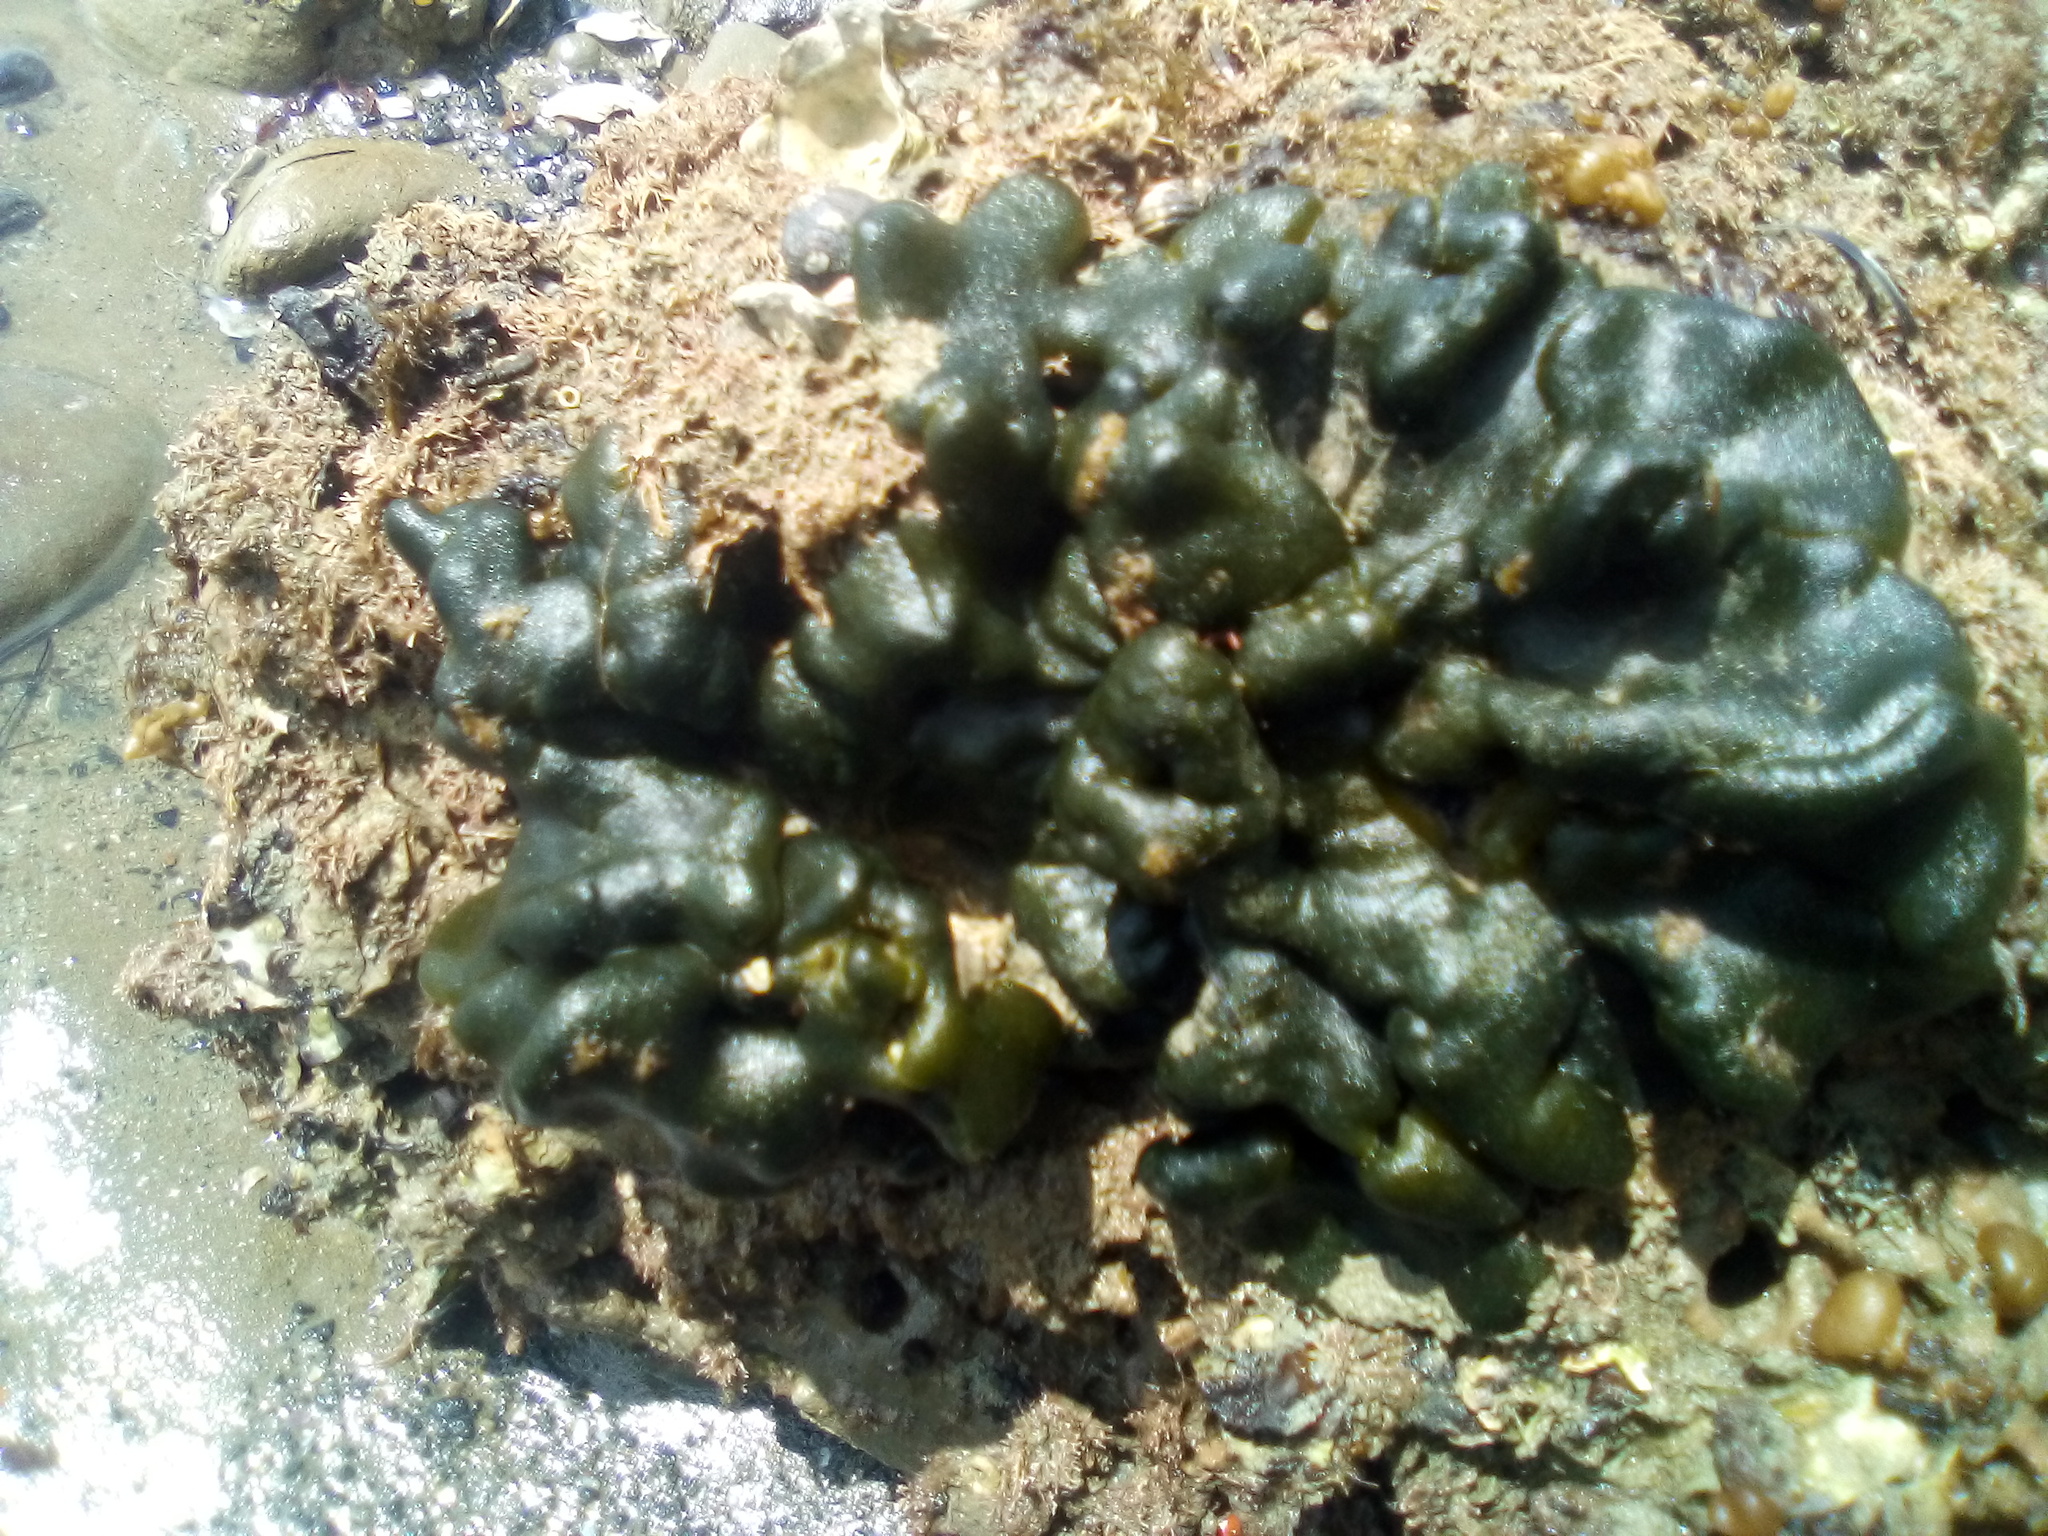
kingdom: Plantae
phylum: Chlorophyta
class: Ulvophyceae
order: Bryopsidales
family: Codiaceae
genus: Codium
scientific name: Codium convolutum
